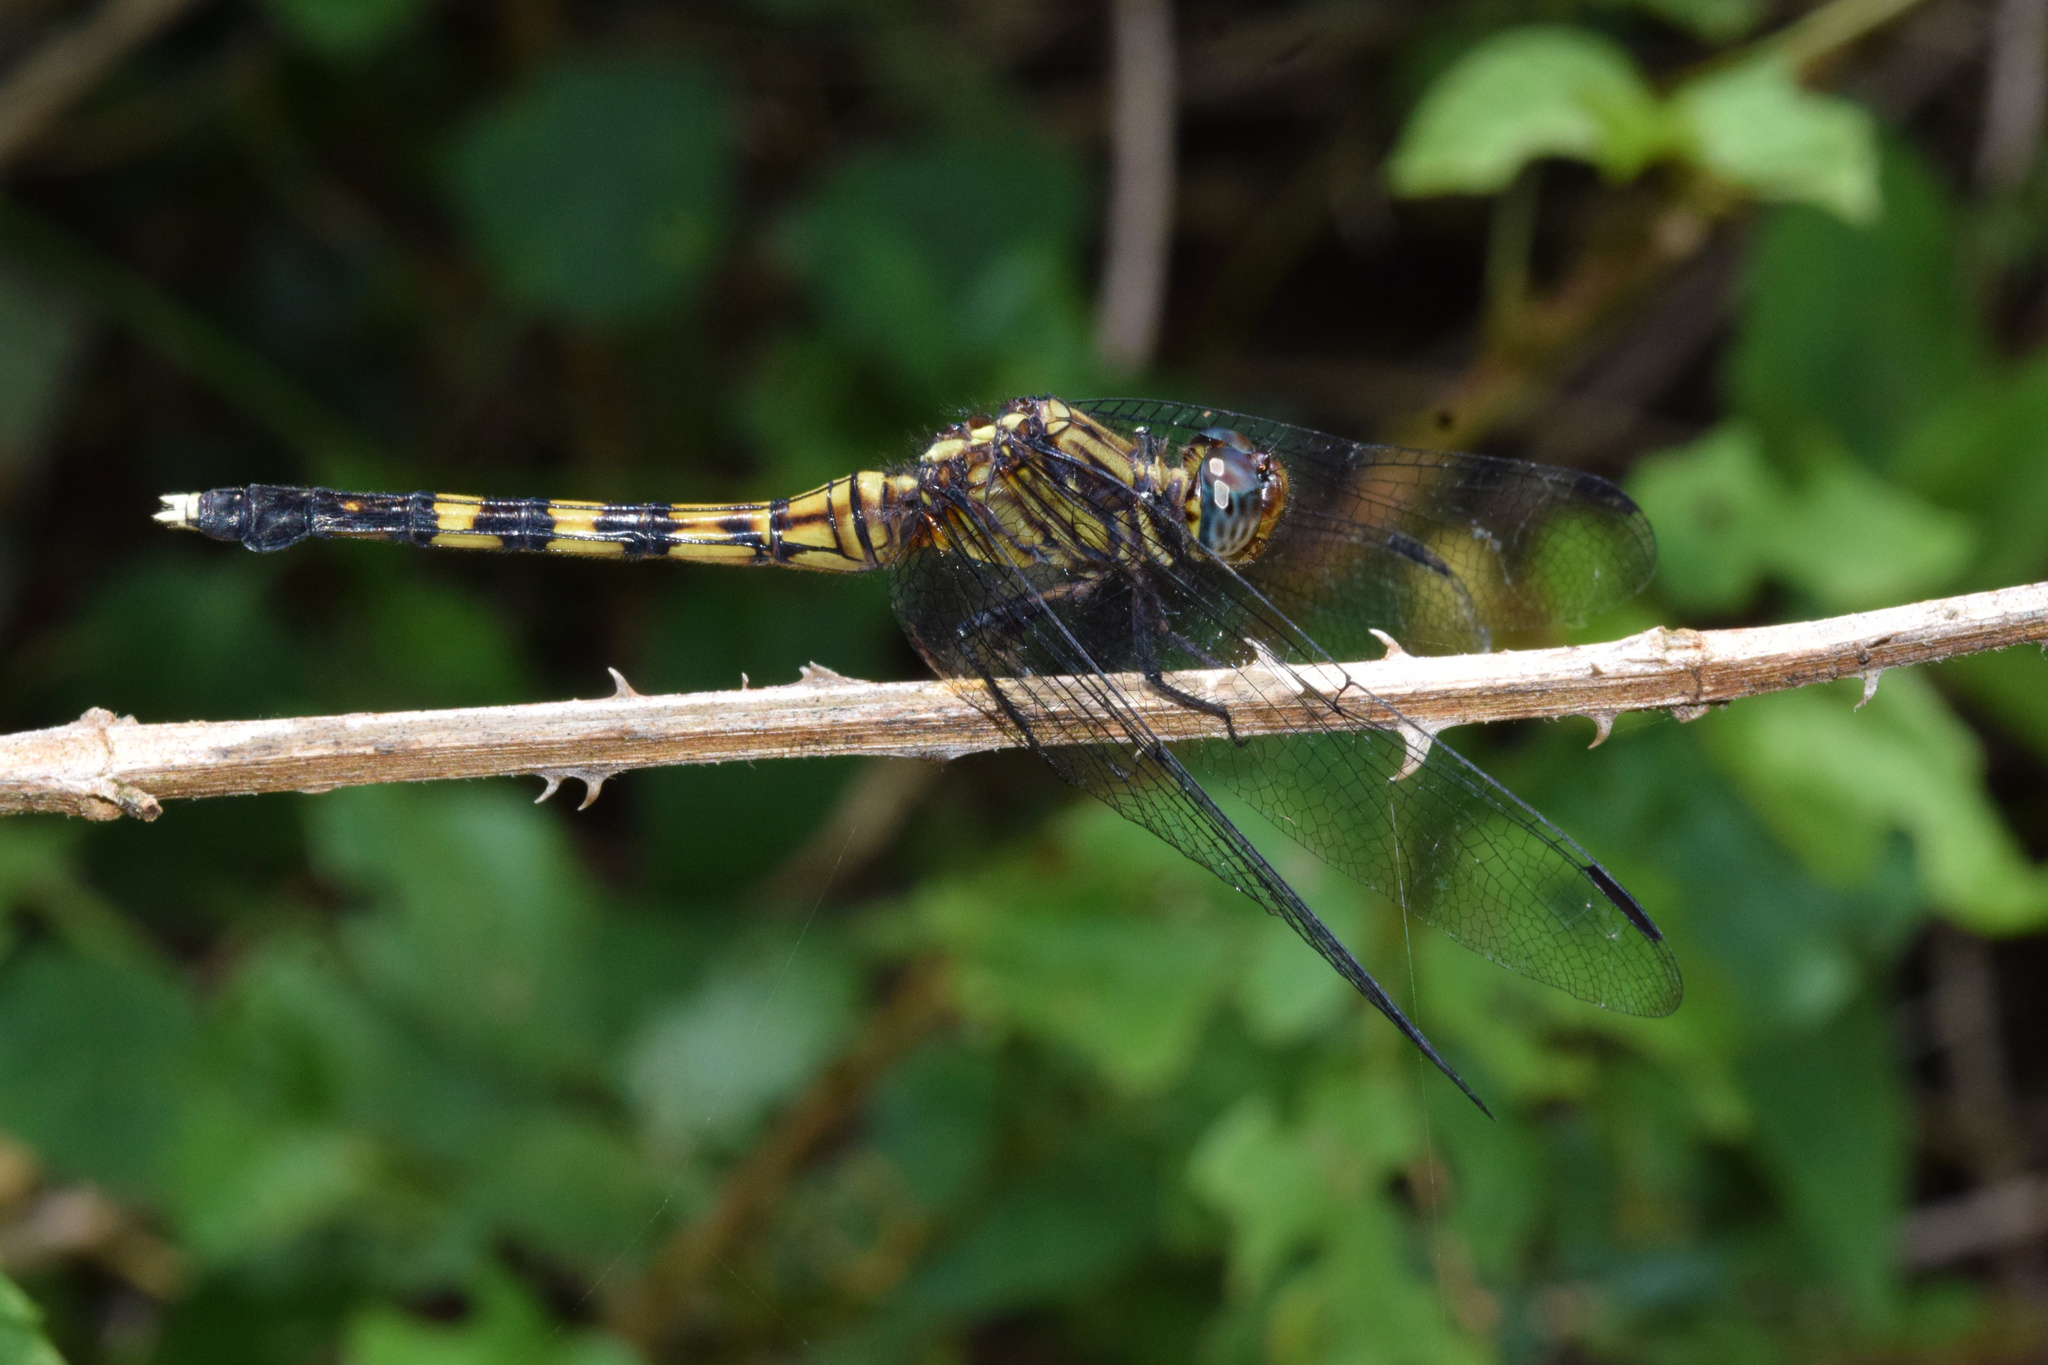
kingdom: Animalia
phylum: Arthropoda
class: Insecta
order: Odonata
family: Libellulidae
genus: Orthetrum
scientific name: Orthetrum julia
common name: Julia skimmer
